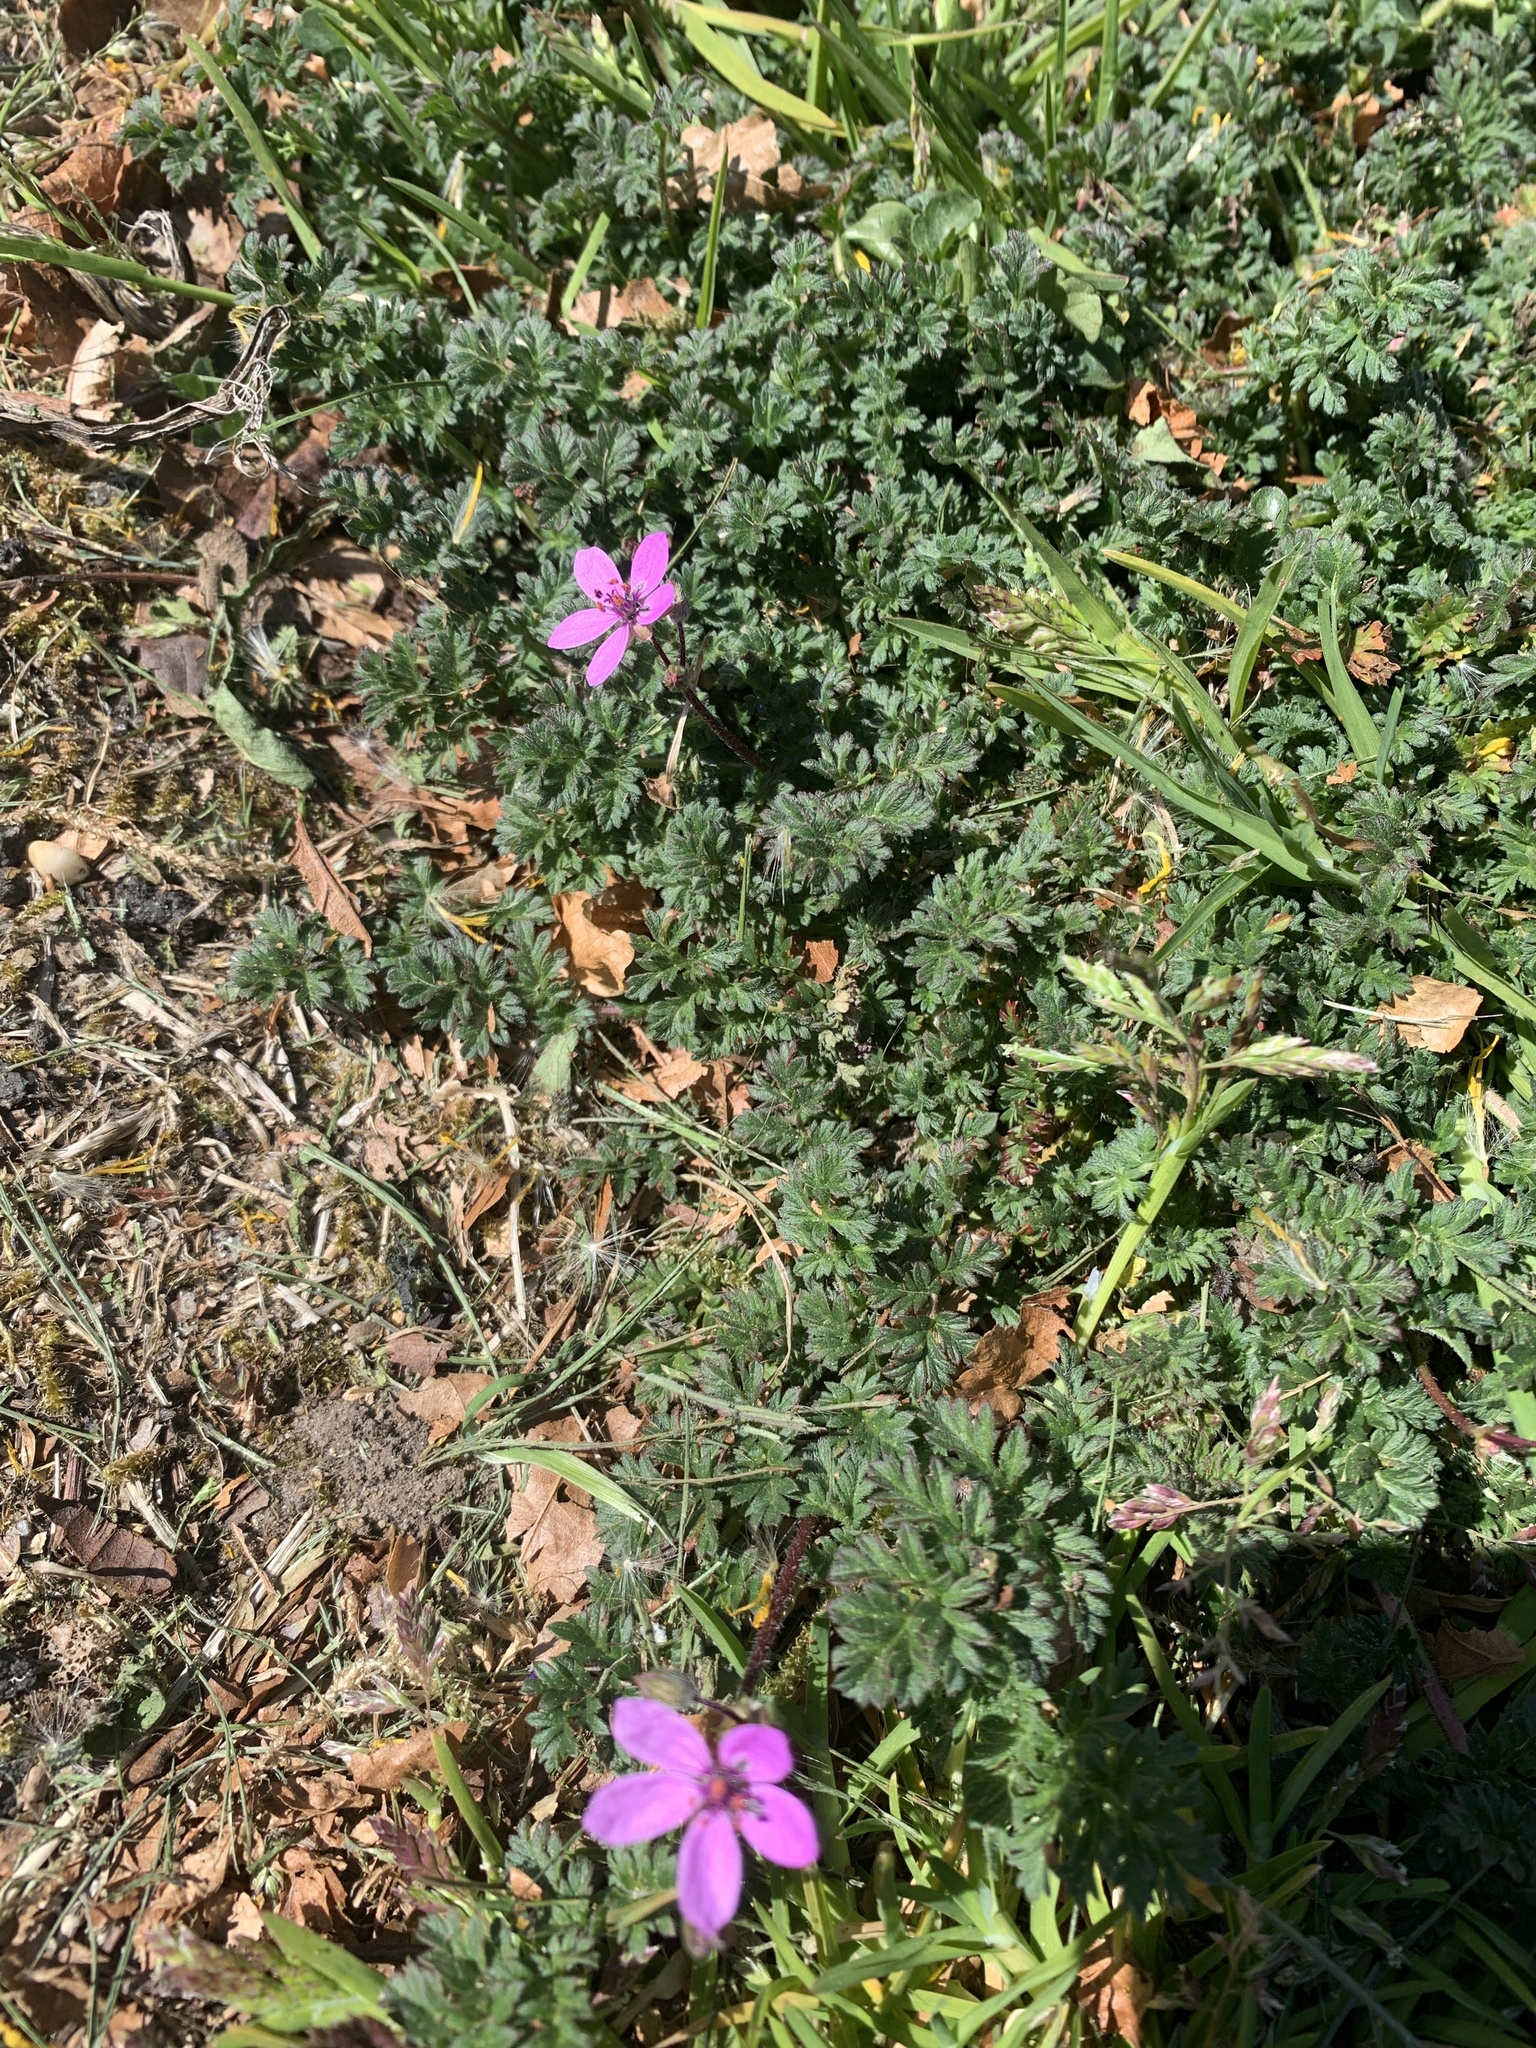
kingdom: Plantae
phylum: Tracheophyta
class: Magnoliopsida
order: Geraniales
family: Geraniaceae
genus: Erodium
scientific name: Erodium cicutarium
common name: Common stork's-bill
